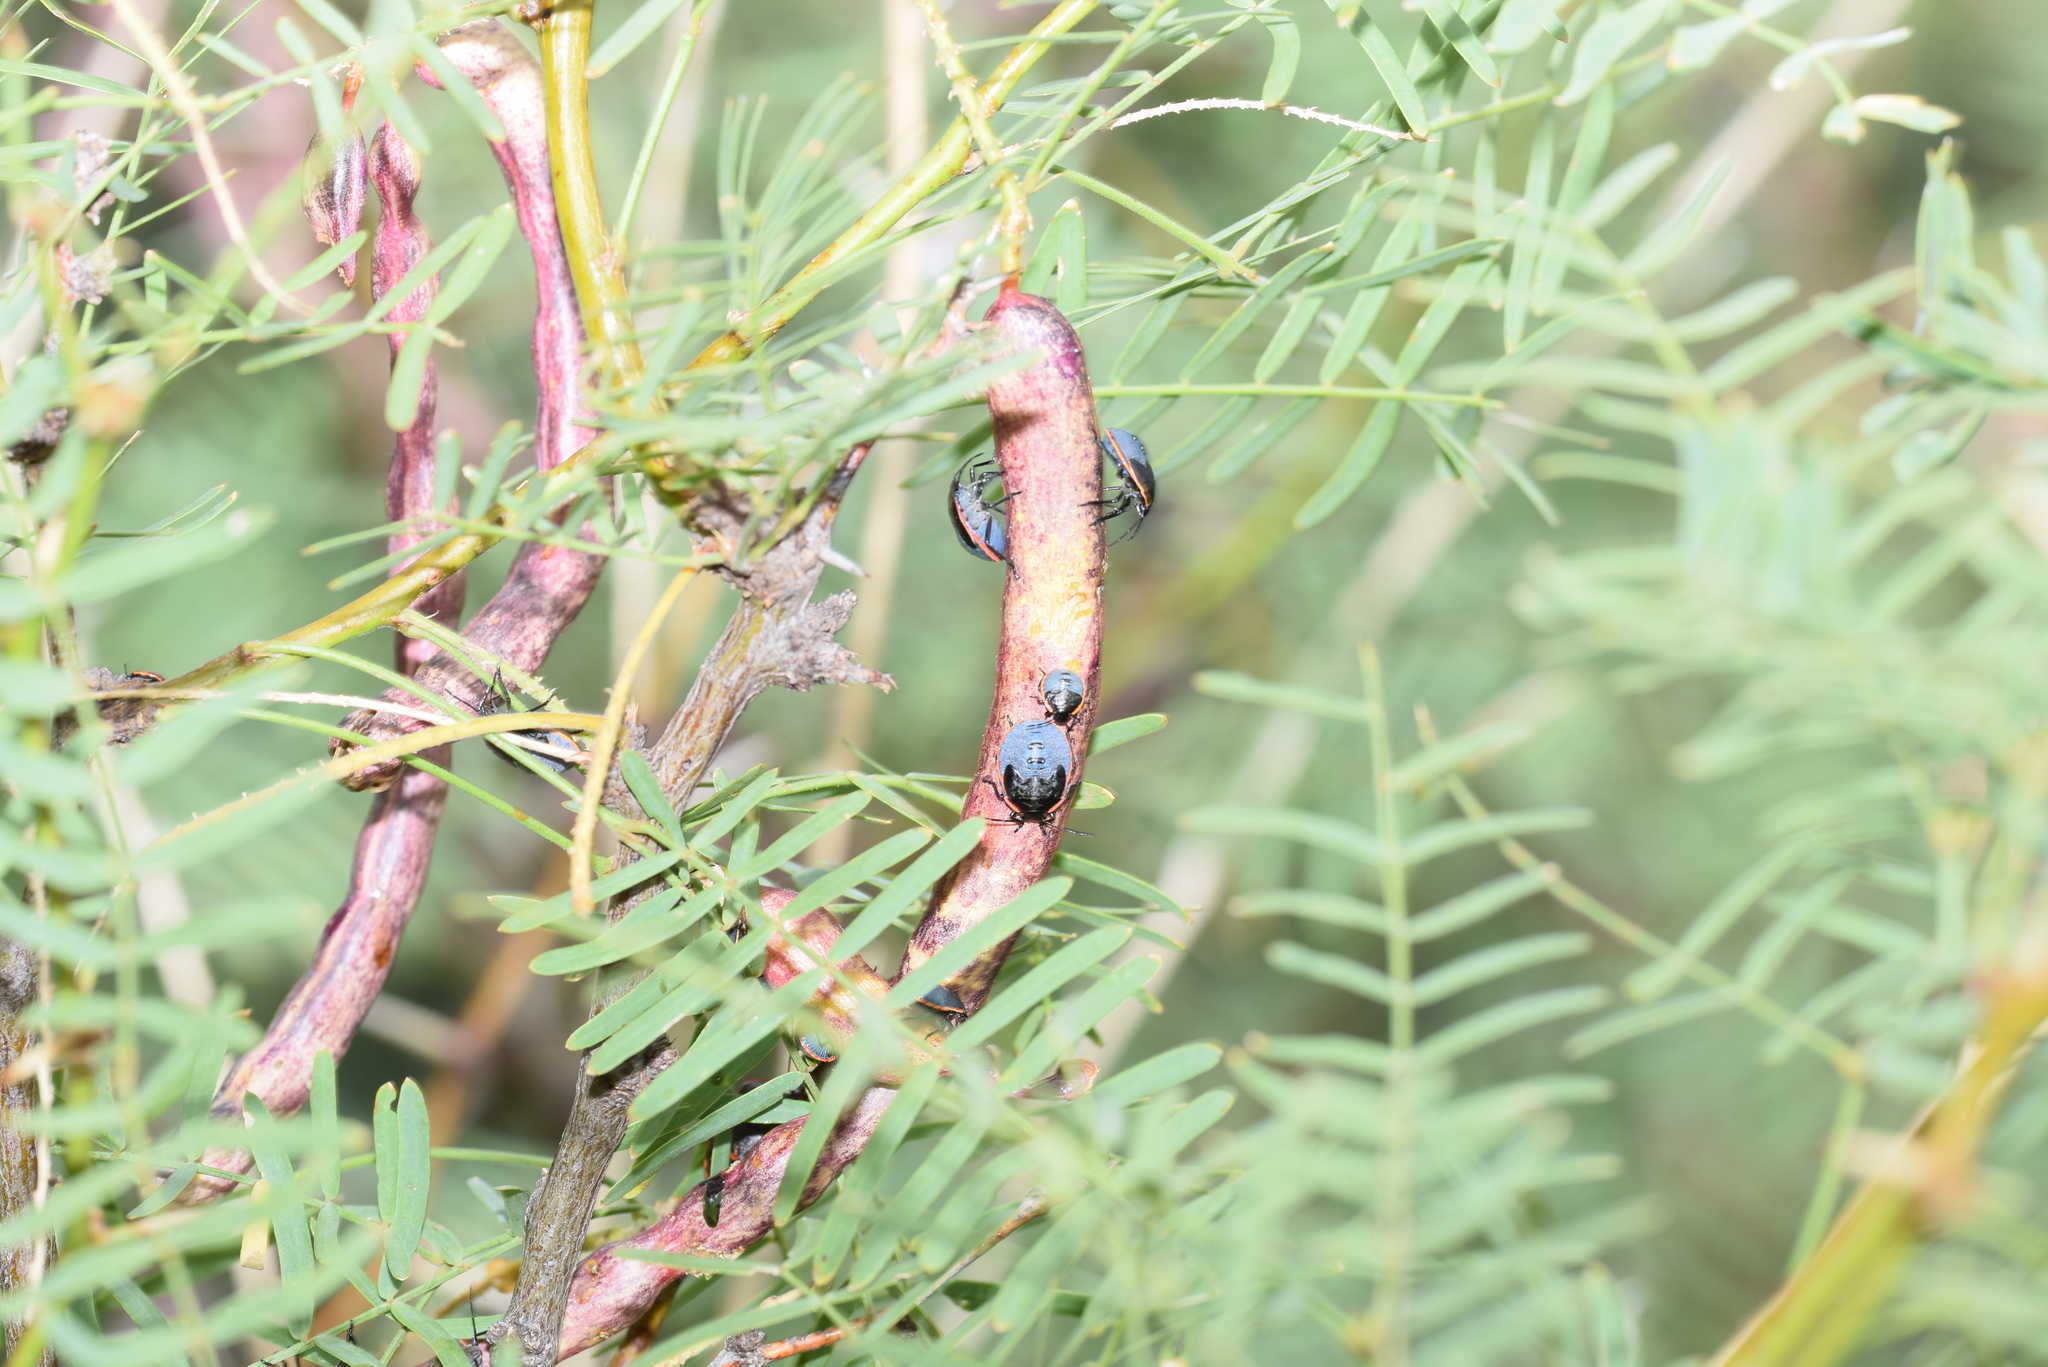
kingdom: Animalia
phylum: Arthropoda
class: Insecta
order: Hemiptera
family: Pentatomidae
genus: Chlorochroa
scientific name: Chlorochroa ligata
